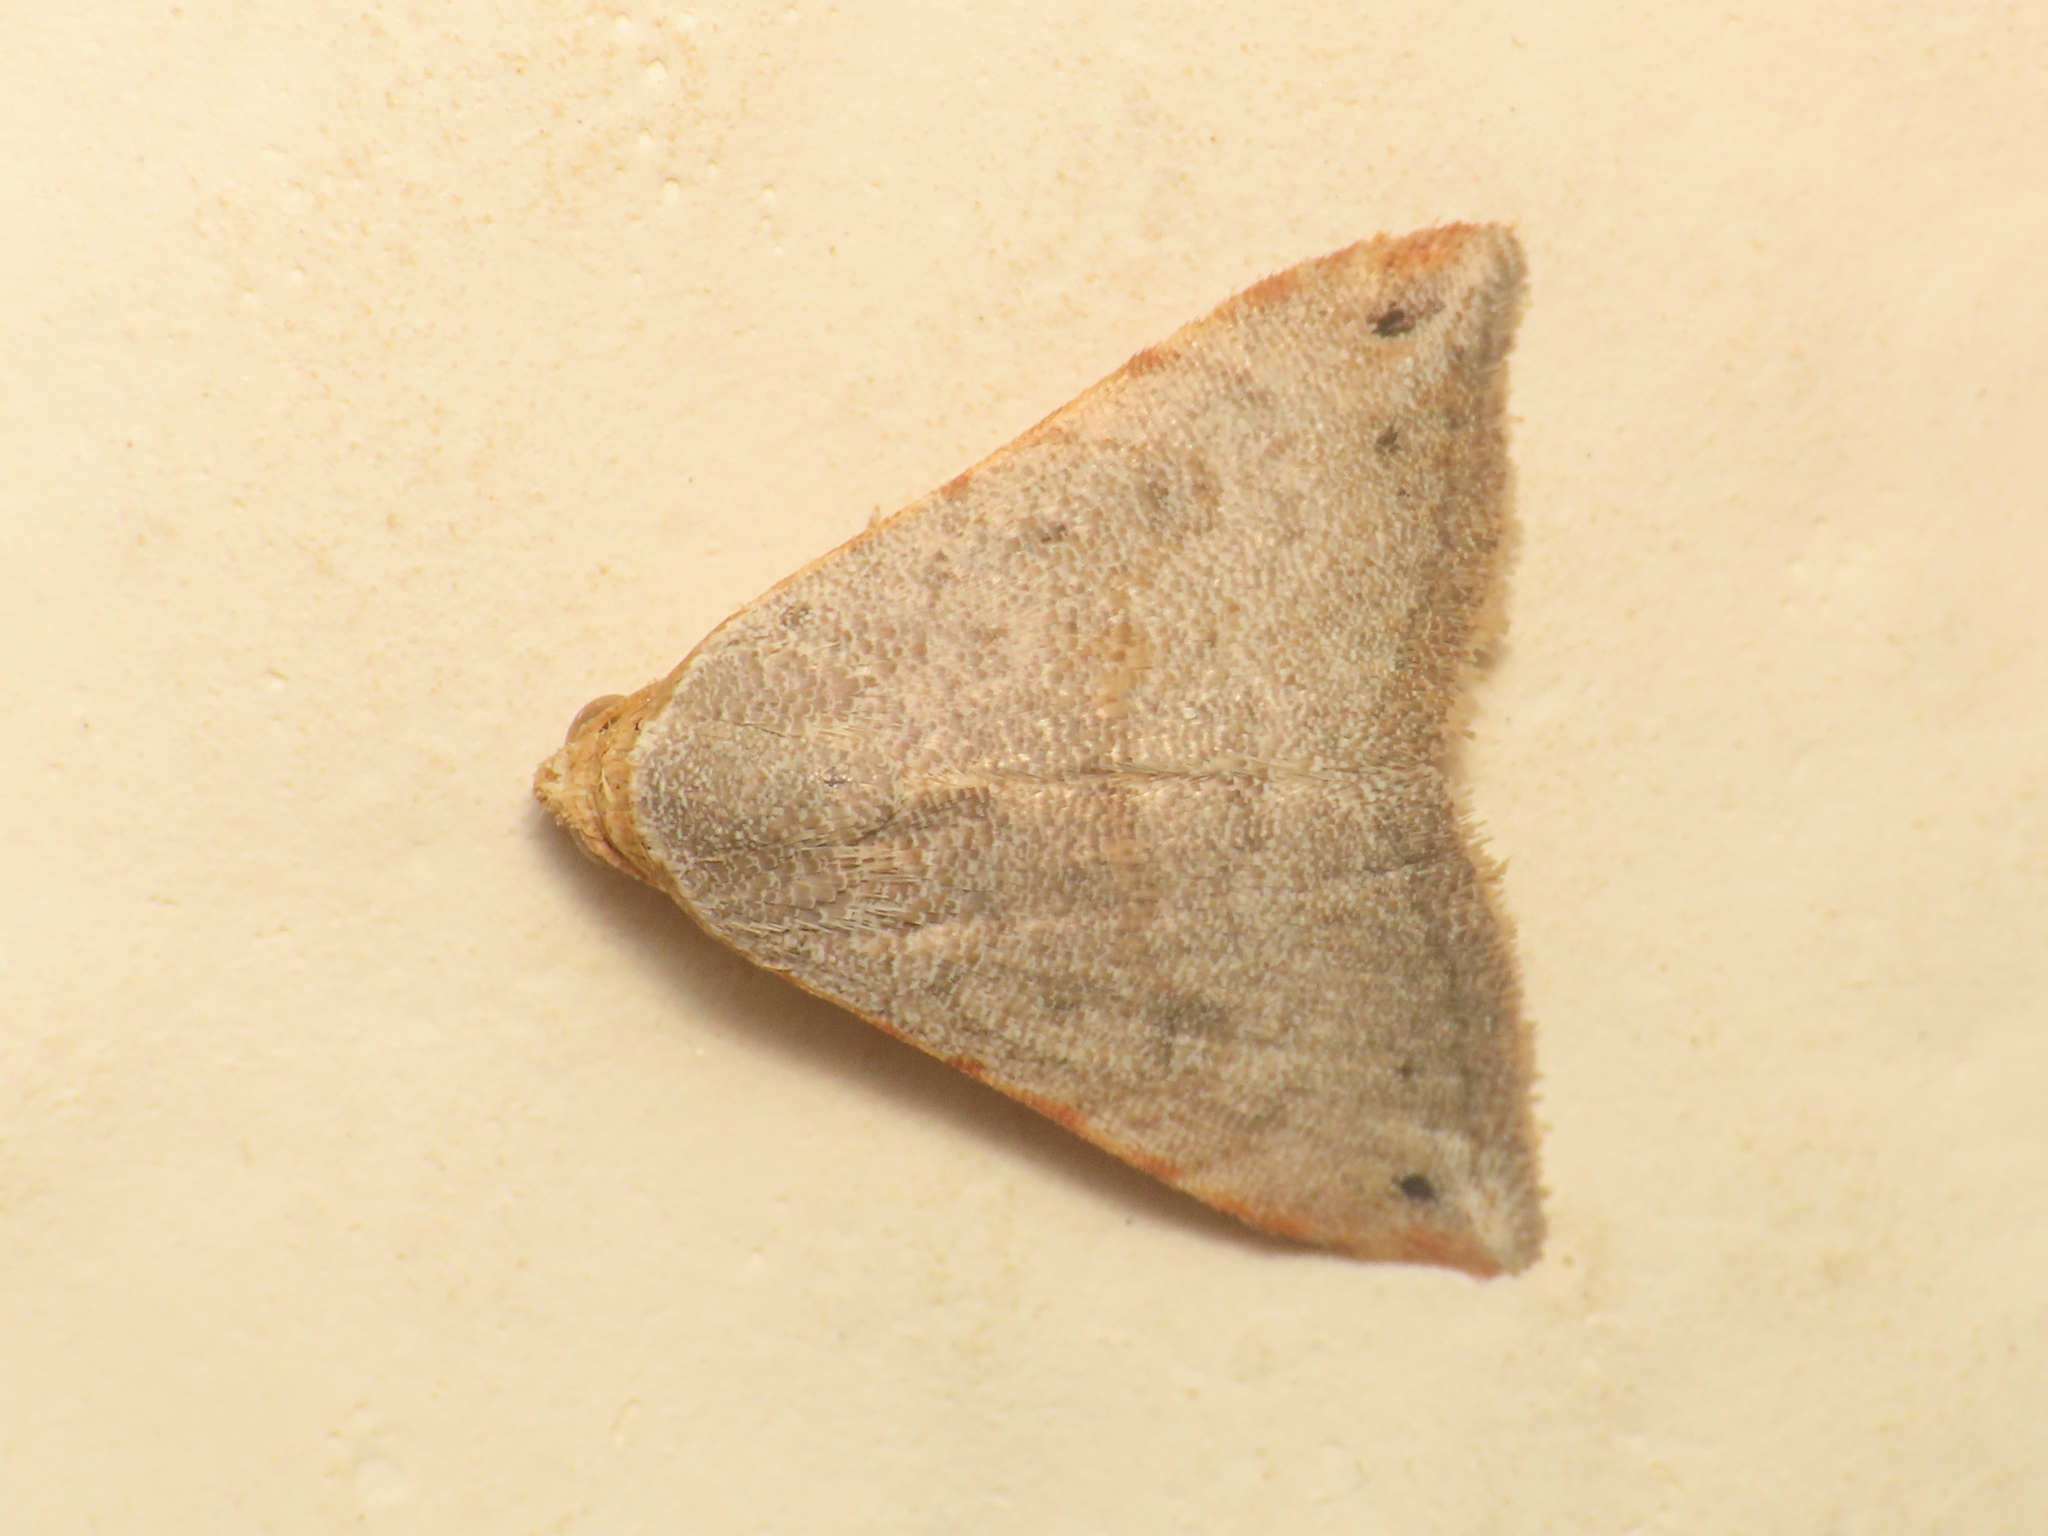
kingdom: Animalia
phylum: Arthropoda
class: Insecta
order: Lepidoptera
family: Noctuidae
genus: Eublemma
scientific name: Eublemma viettei
